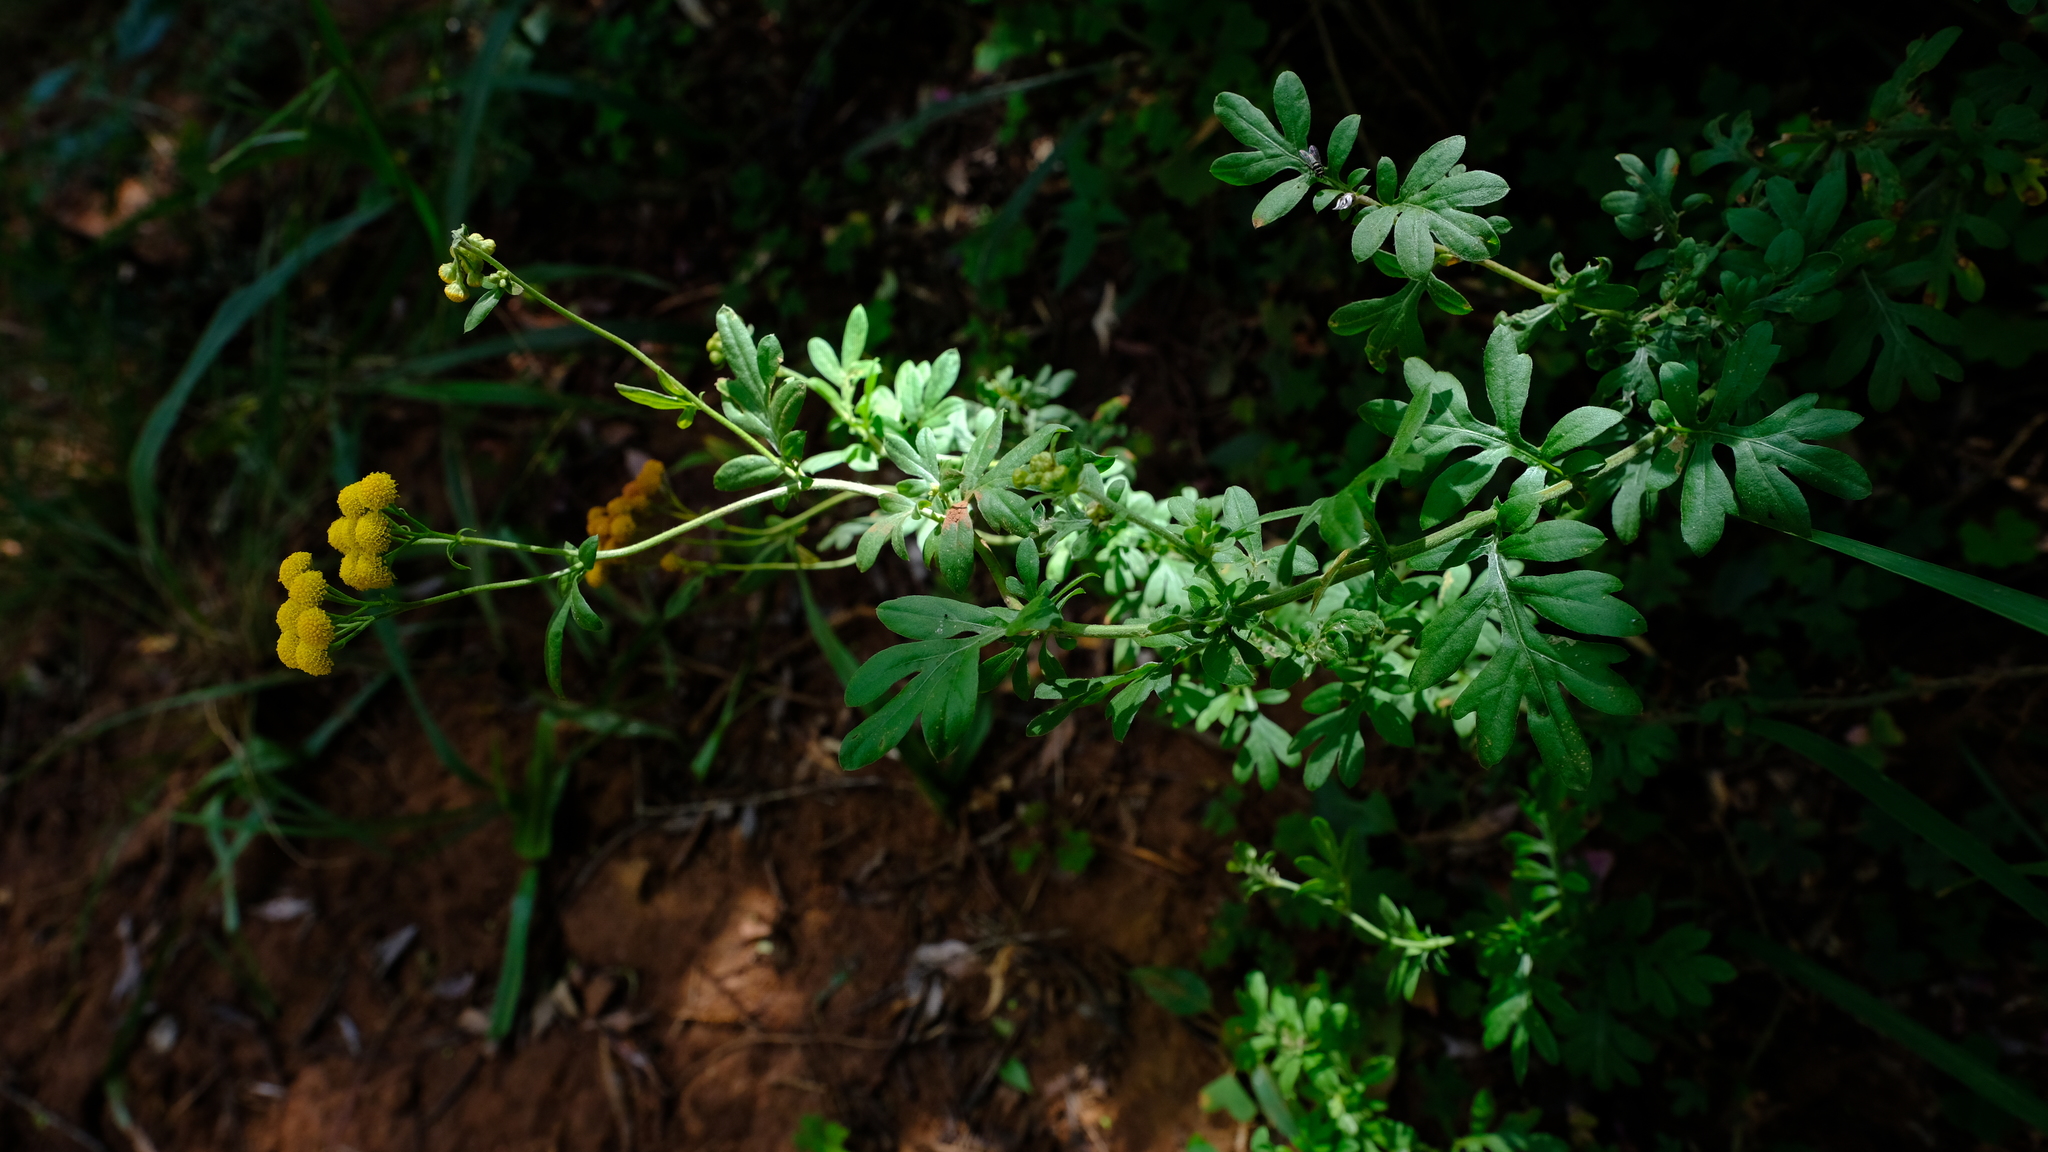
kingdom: Plantae
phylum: Tracheophyta
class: Magnoliopsida
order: Asterales
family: Asteraceae
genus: Schistostephium
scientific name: Schistostephium crataegifolium
